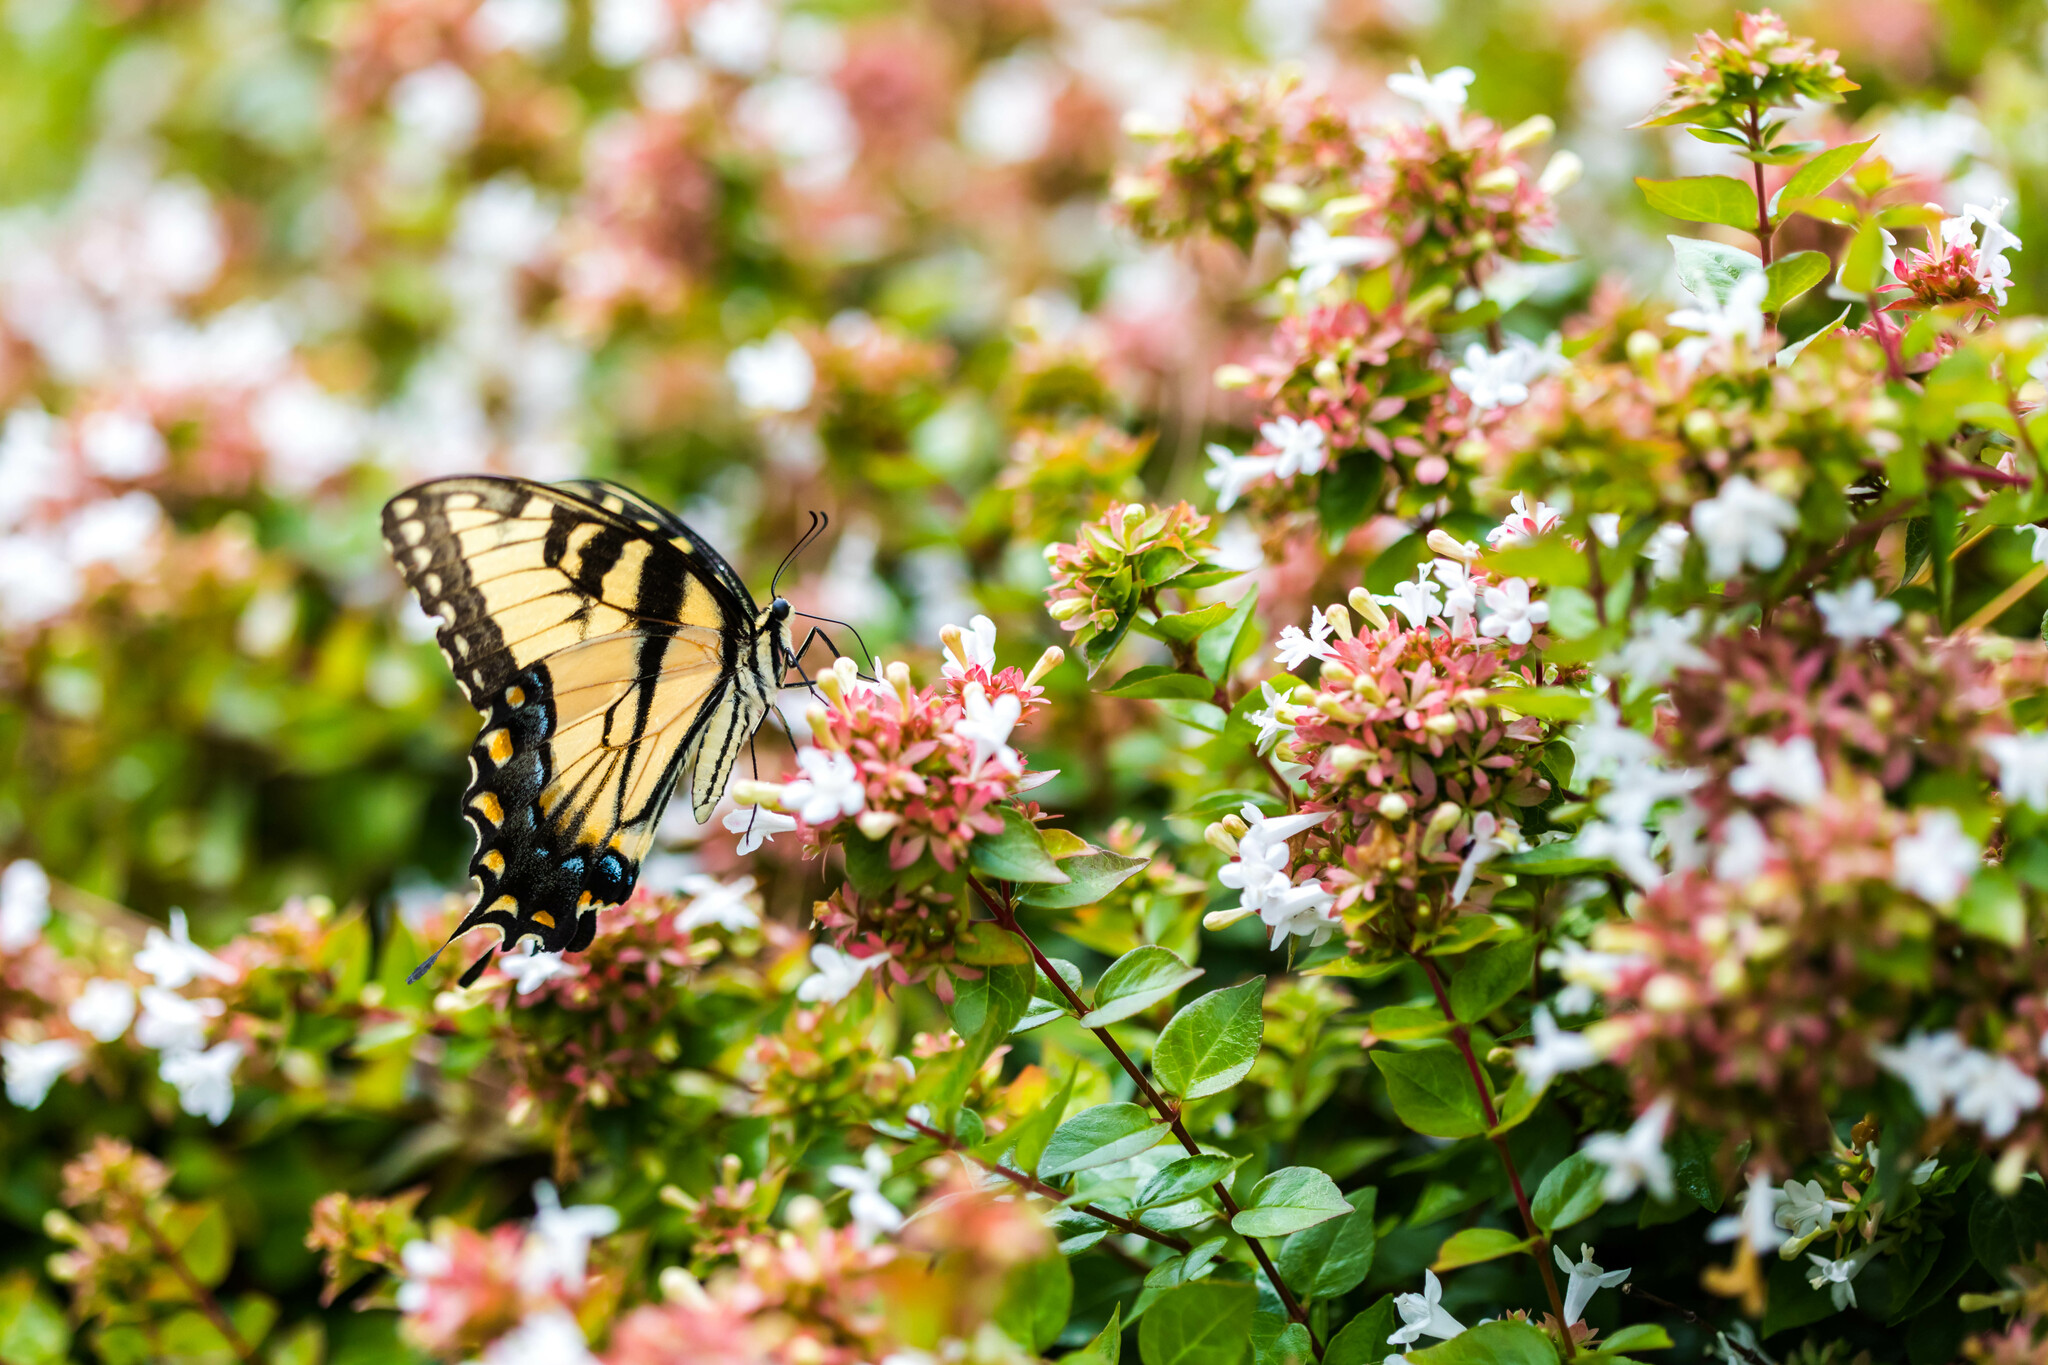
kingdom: Animalia
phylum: Arthropoda
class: Insecta
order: Lepidoptera
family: Papilionidae
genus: Papilio
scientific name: Papilio glaucus
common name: Tiger swallowtail
